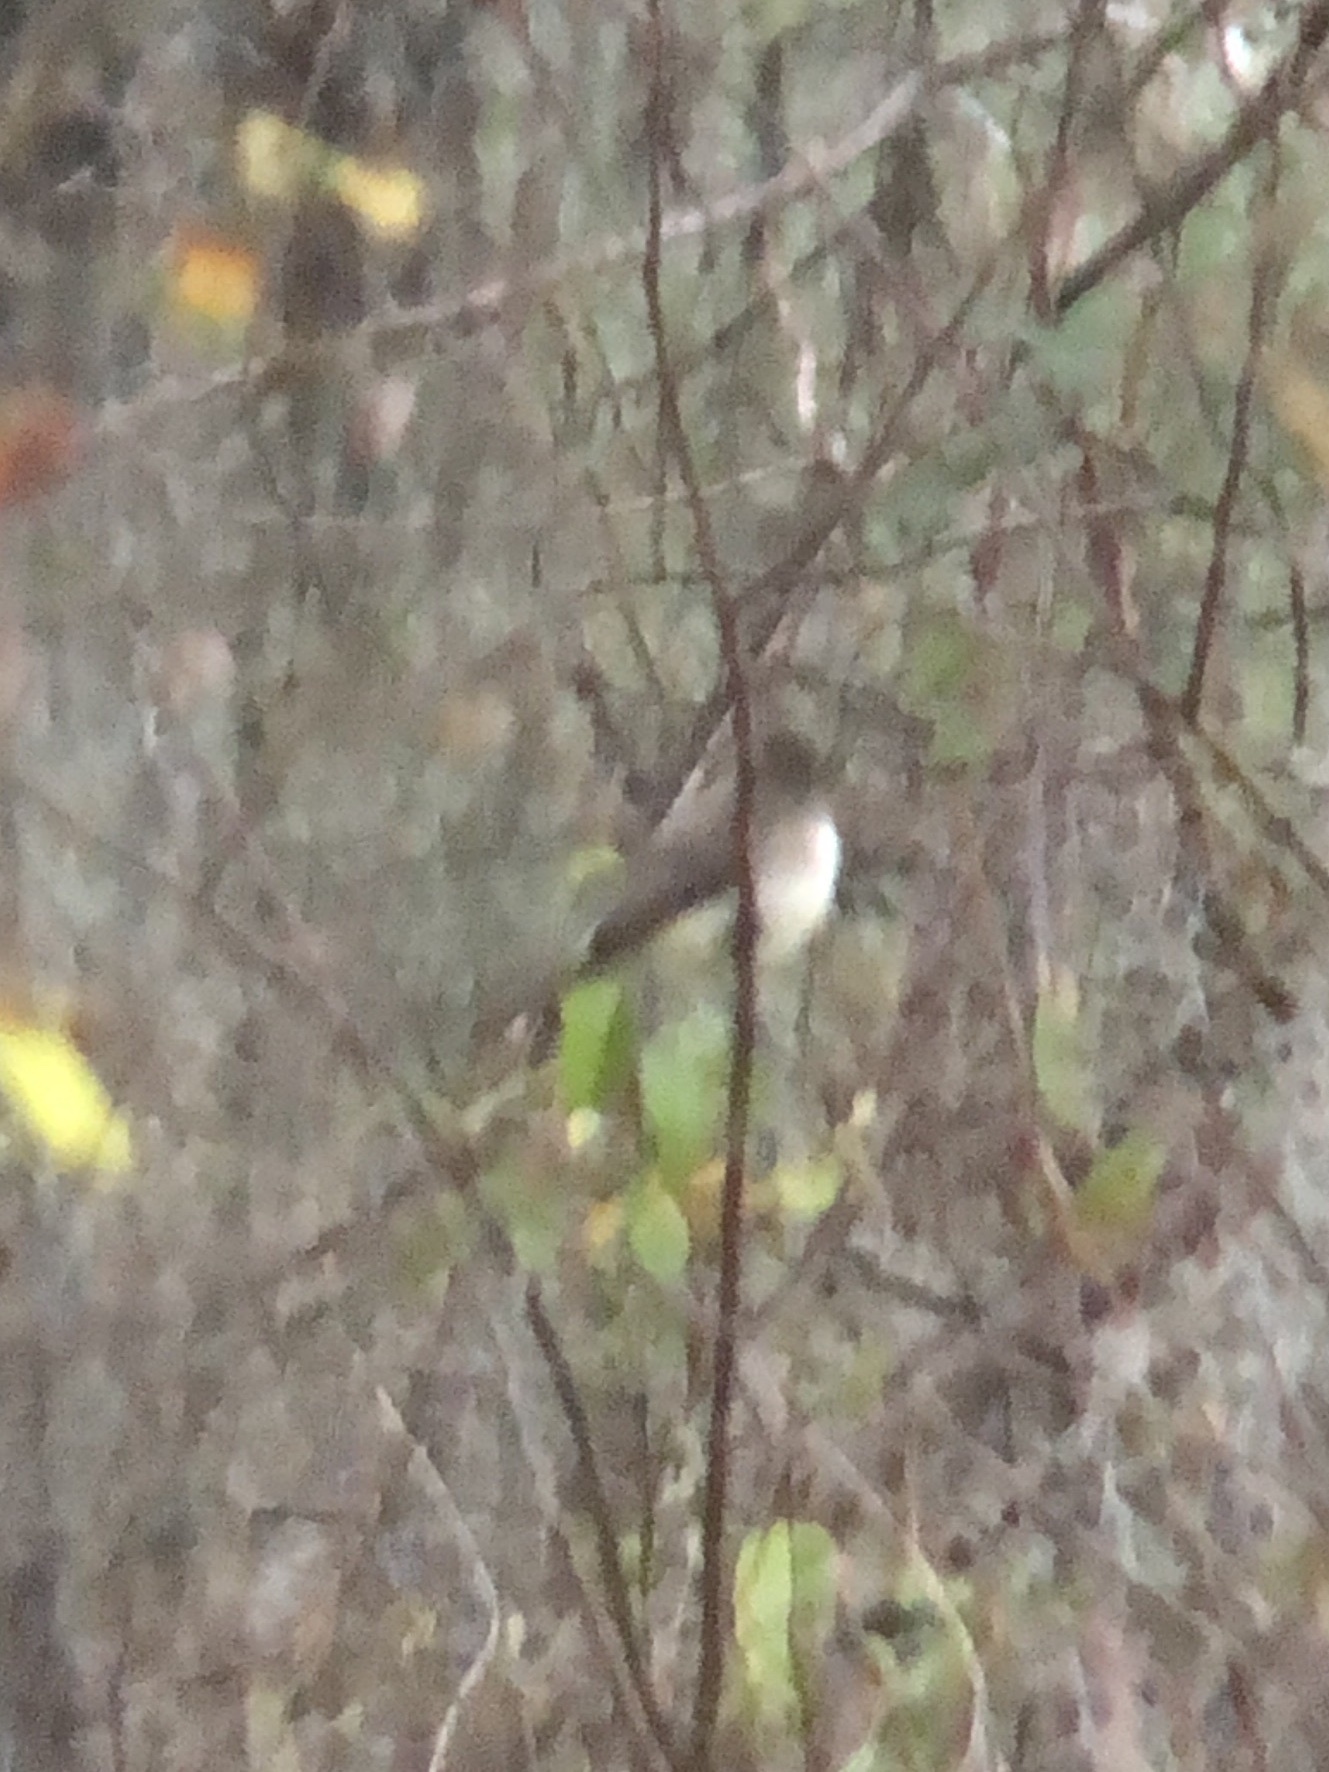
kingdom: Animalia
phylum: Chordata
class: Aves
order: Passeriformes
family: Tyrannidae
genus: Sayornis
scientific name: Sayornis phoebe
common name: Eastern phoebe
